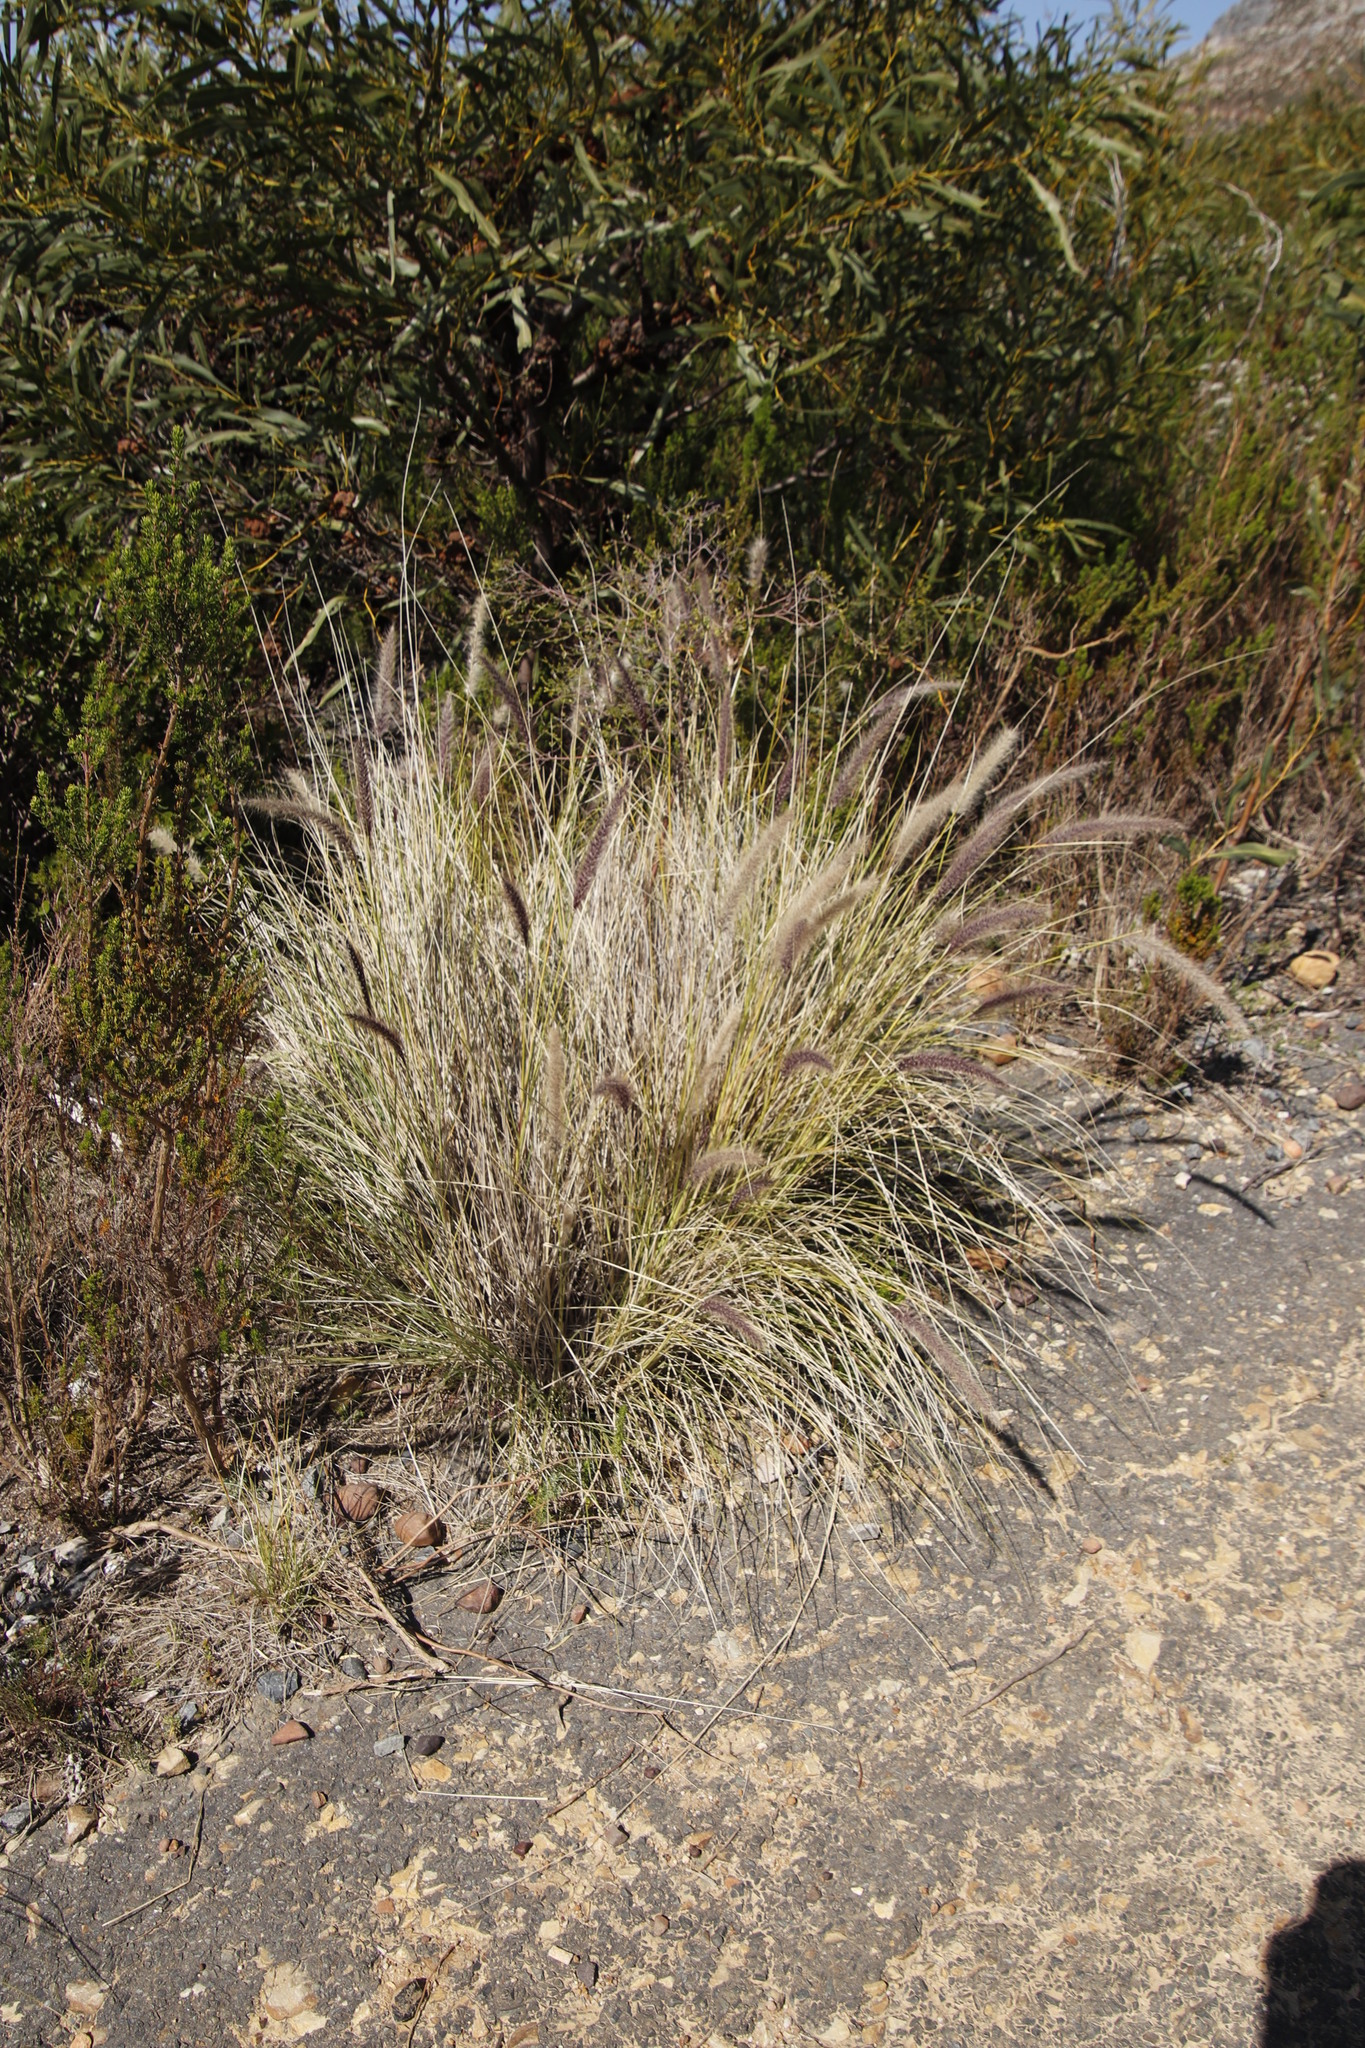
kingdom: Plantae
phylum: Tracheophyta
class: Liliopsida
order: Poales
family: Poaceae
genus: Cenchrus
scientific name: Cenchrus setaceus
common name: Crimson fountaingrass
